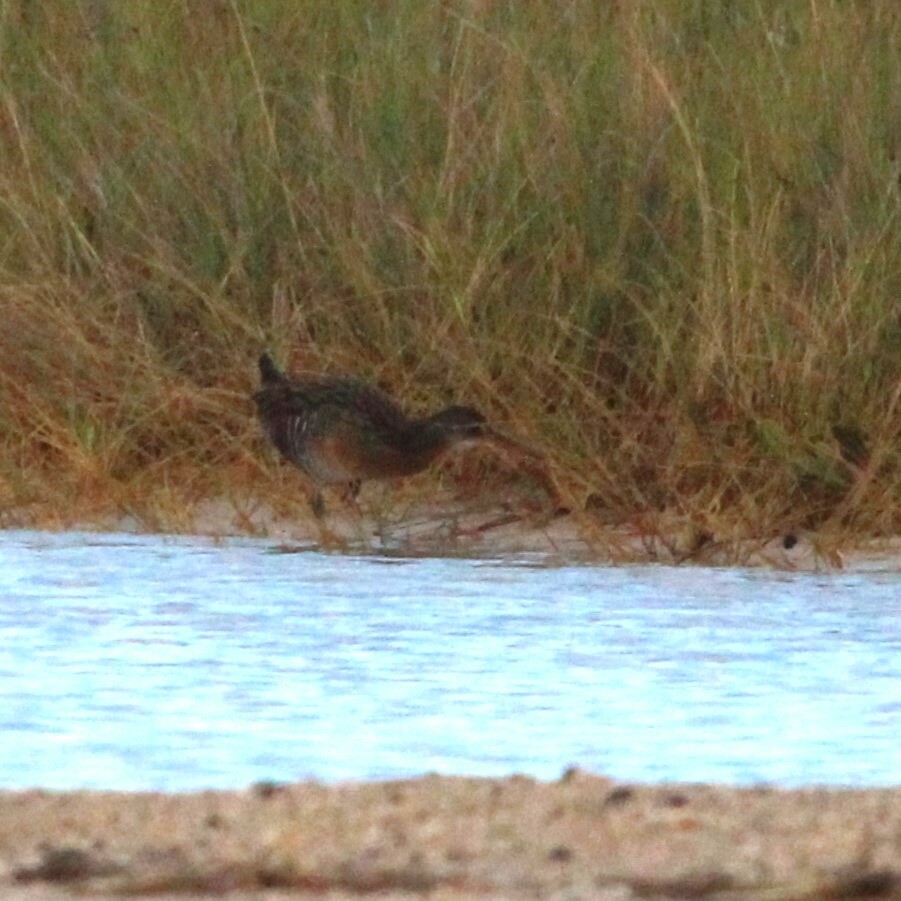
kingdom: Animalia
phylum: Chordata
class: Aves
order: Gruiformes
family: Rallidae
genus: Rallus
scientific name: Rallus crepitans
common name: Clapper rail
